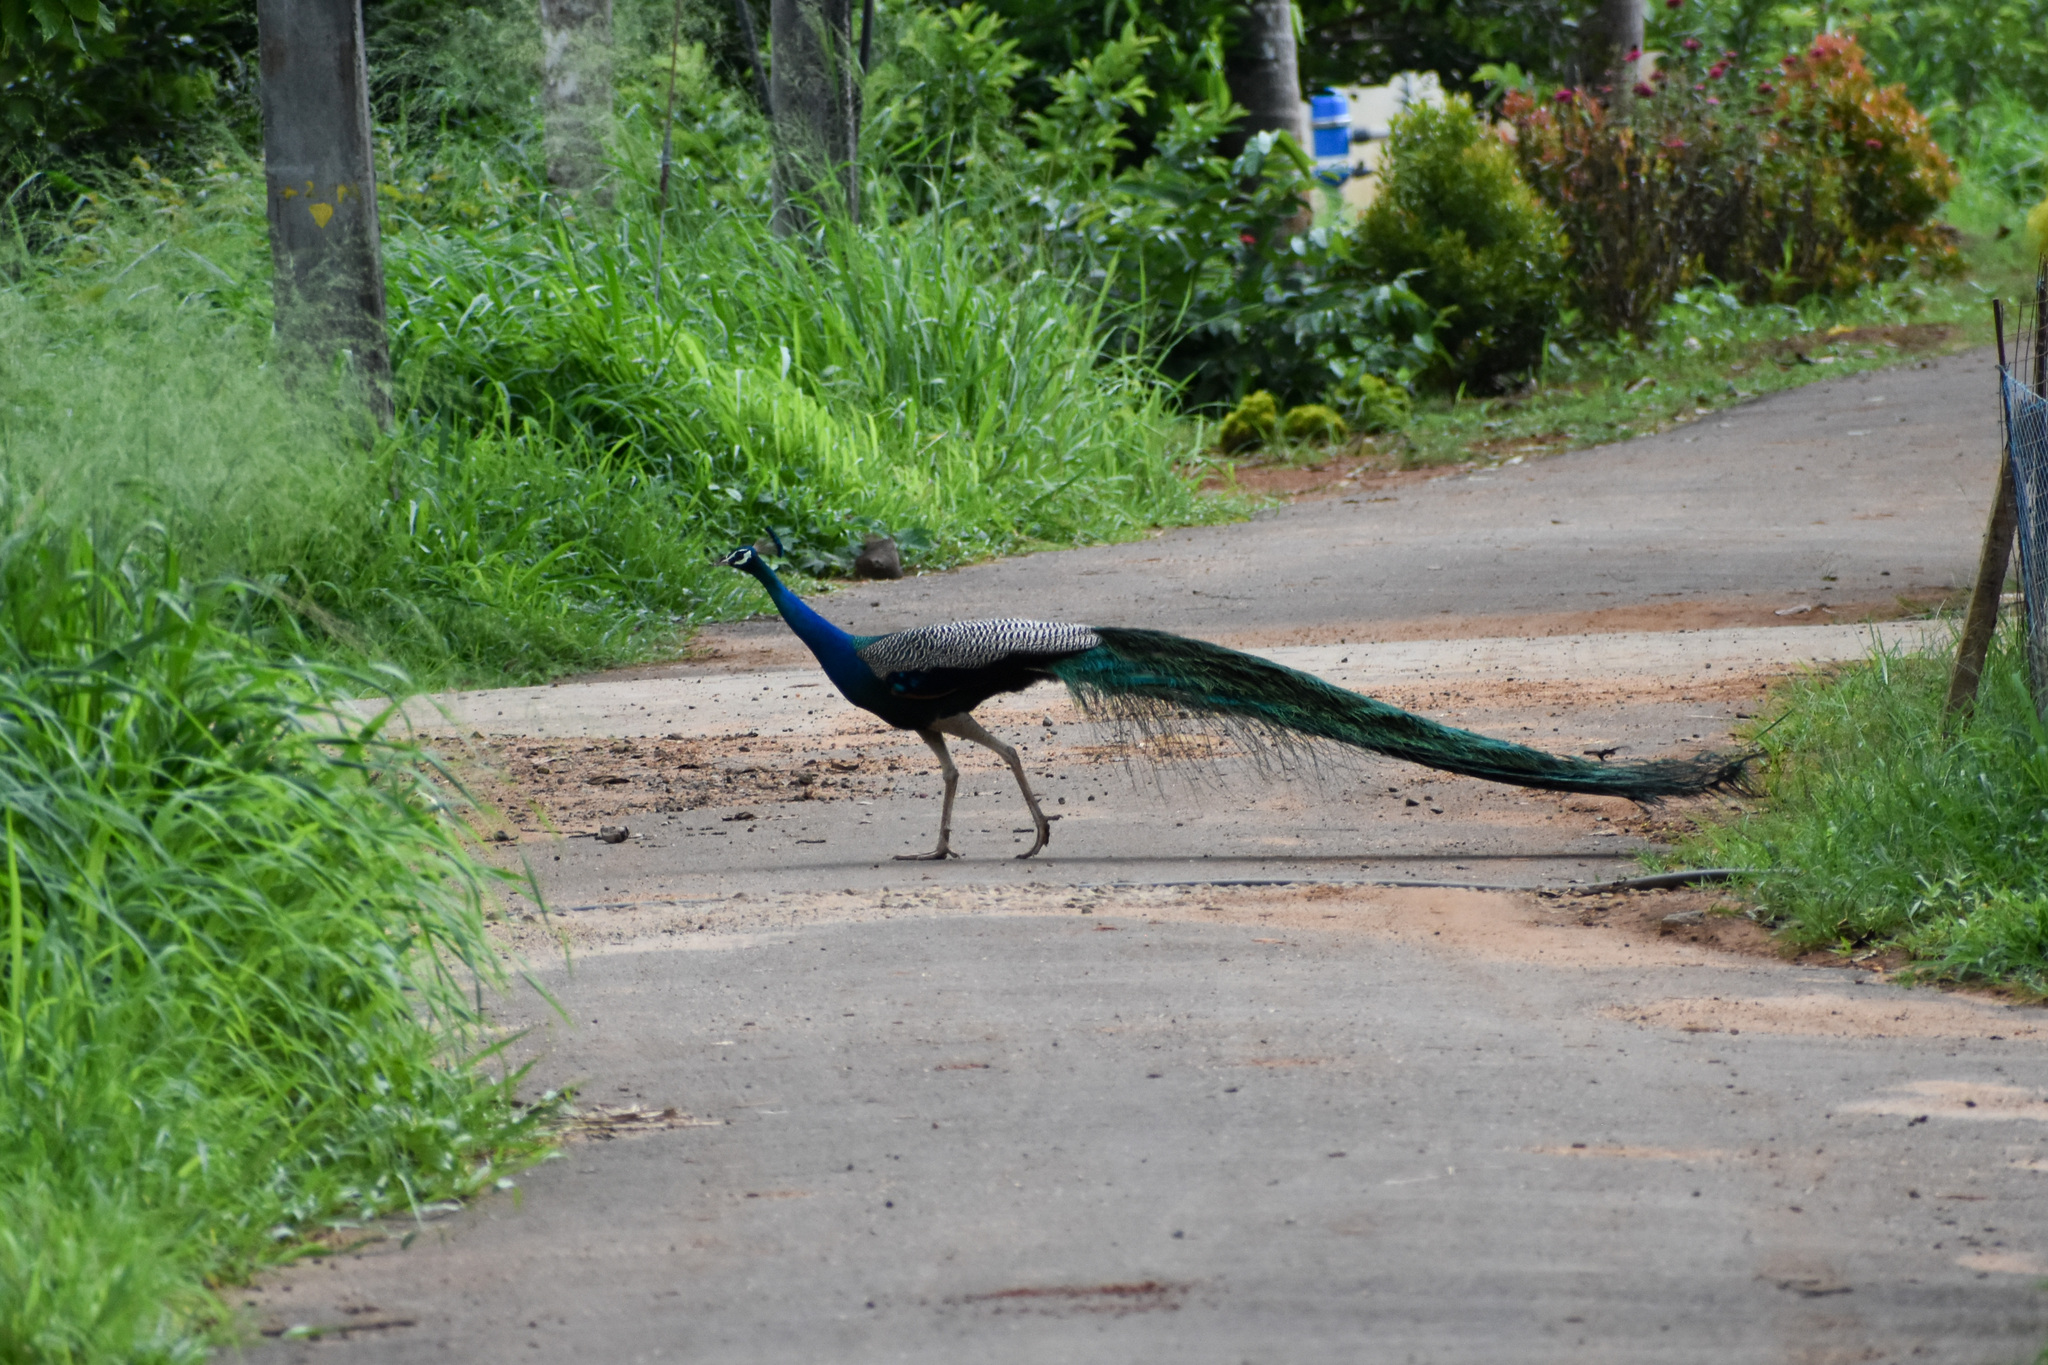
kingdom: Animalia
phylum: Chordata
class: Aves
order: Galliformes
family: Phasianidae
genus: Pavo
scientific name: Pavo cristatus
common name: Indian peafowl
